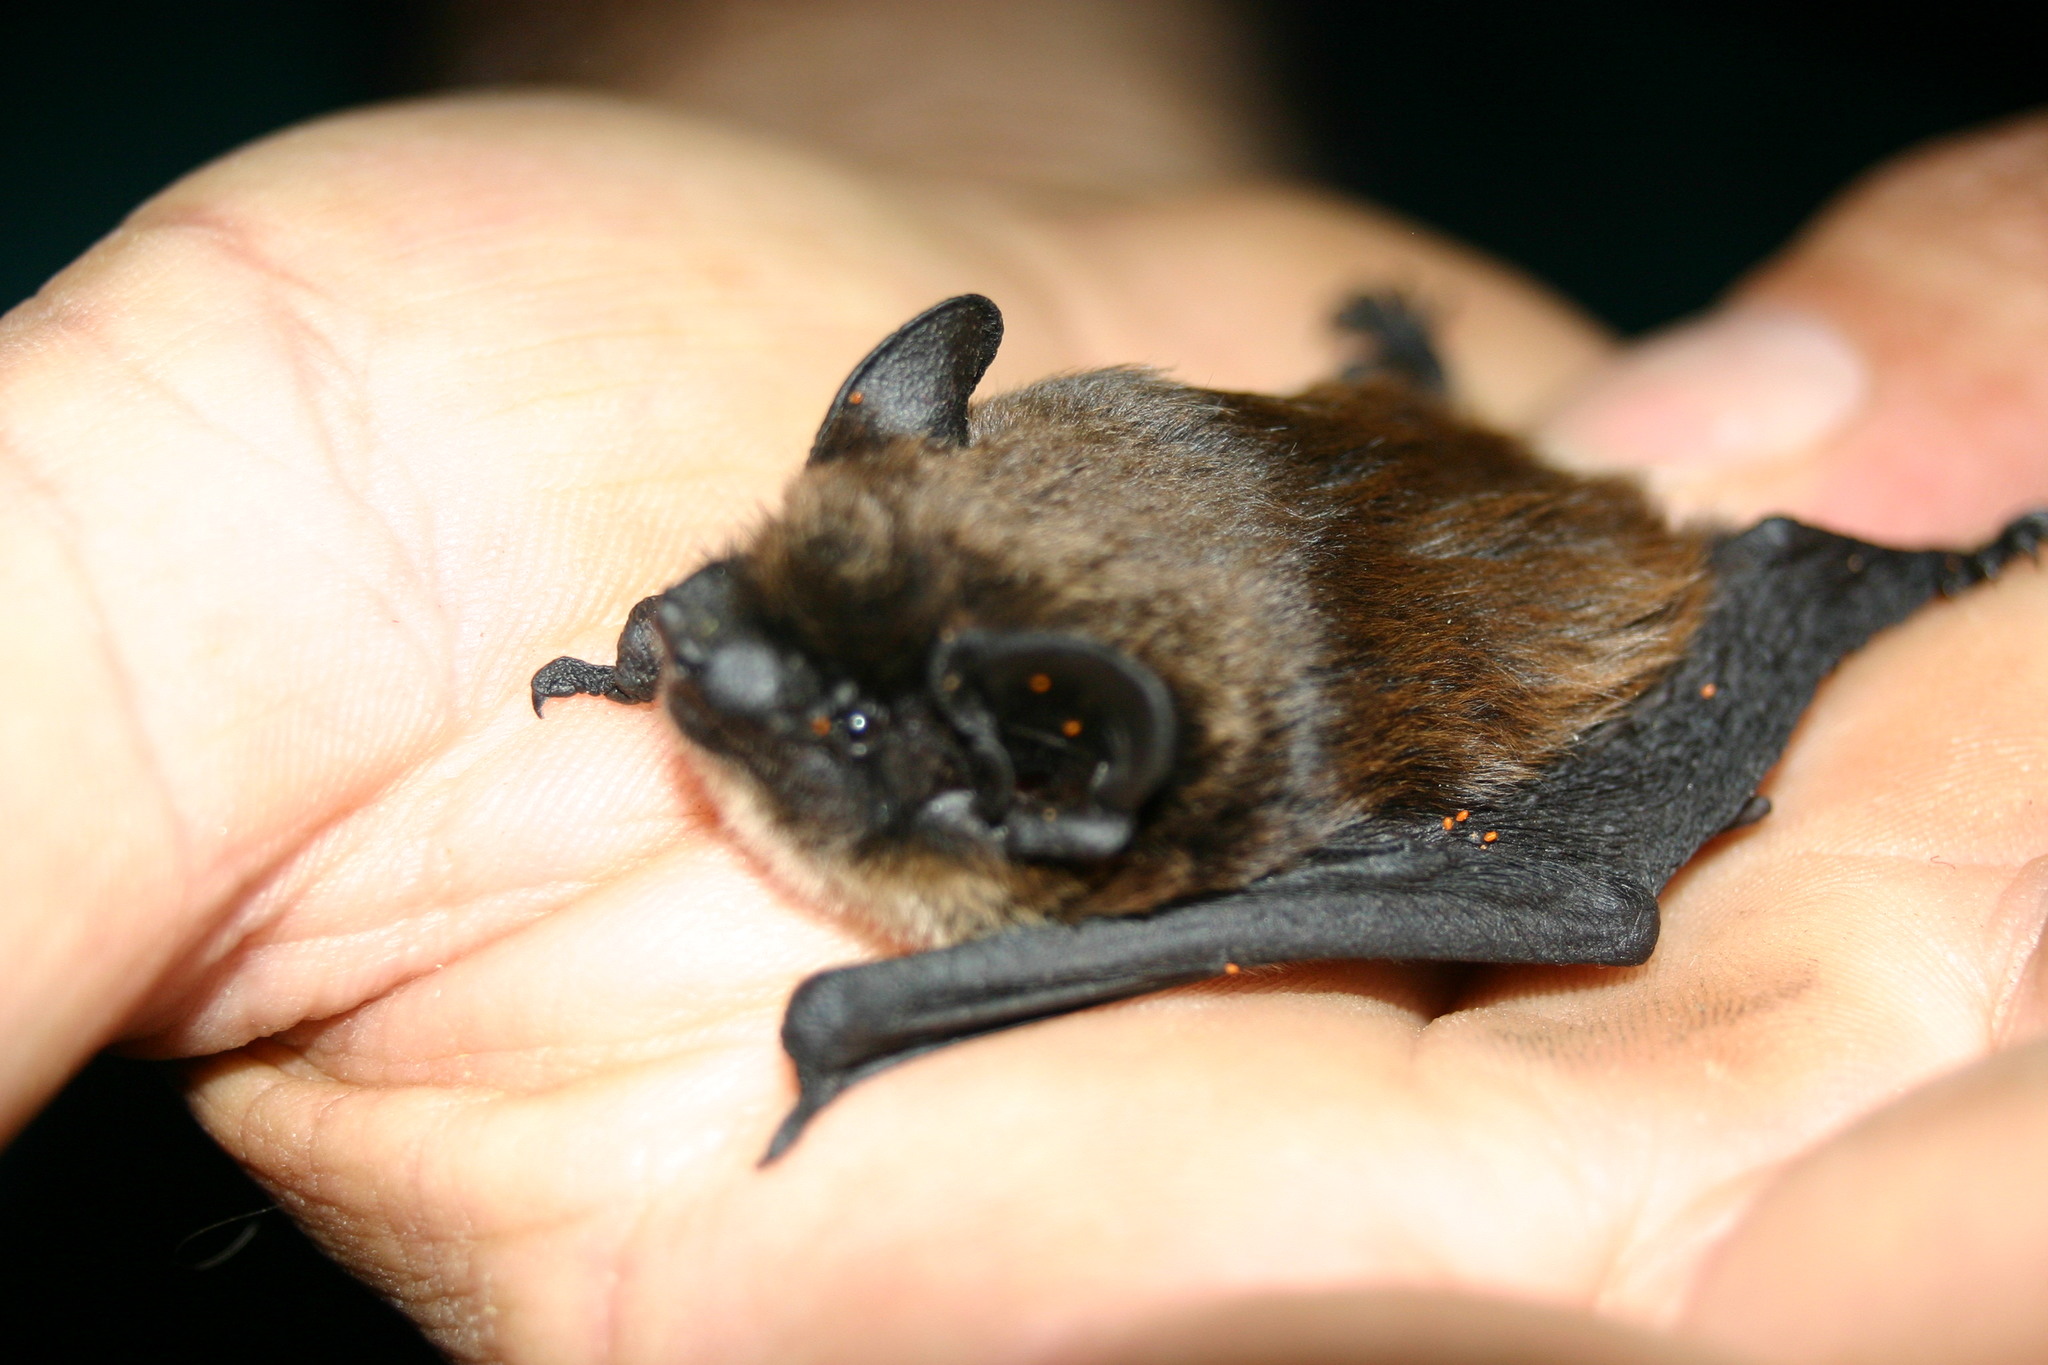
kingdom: Animalia
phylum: Chordata
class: Mammalia
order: Chiroptera
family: Vespertilionidae
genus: Hypsugo
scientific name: Hypsugo savii
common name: Savi's pipistrelle
